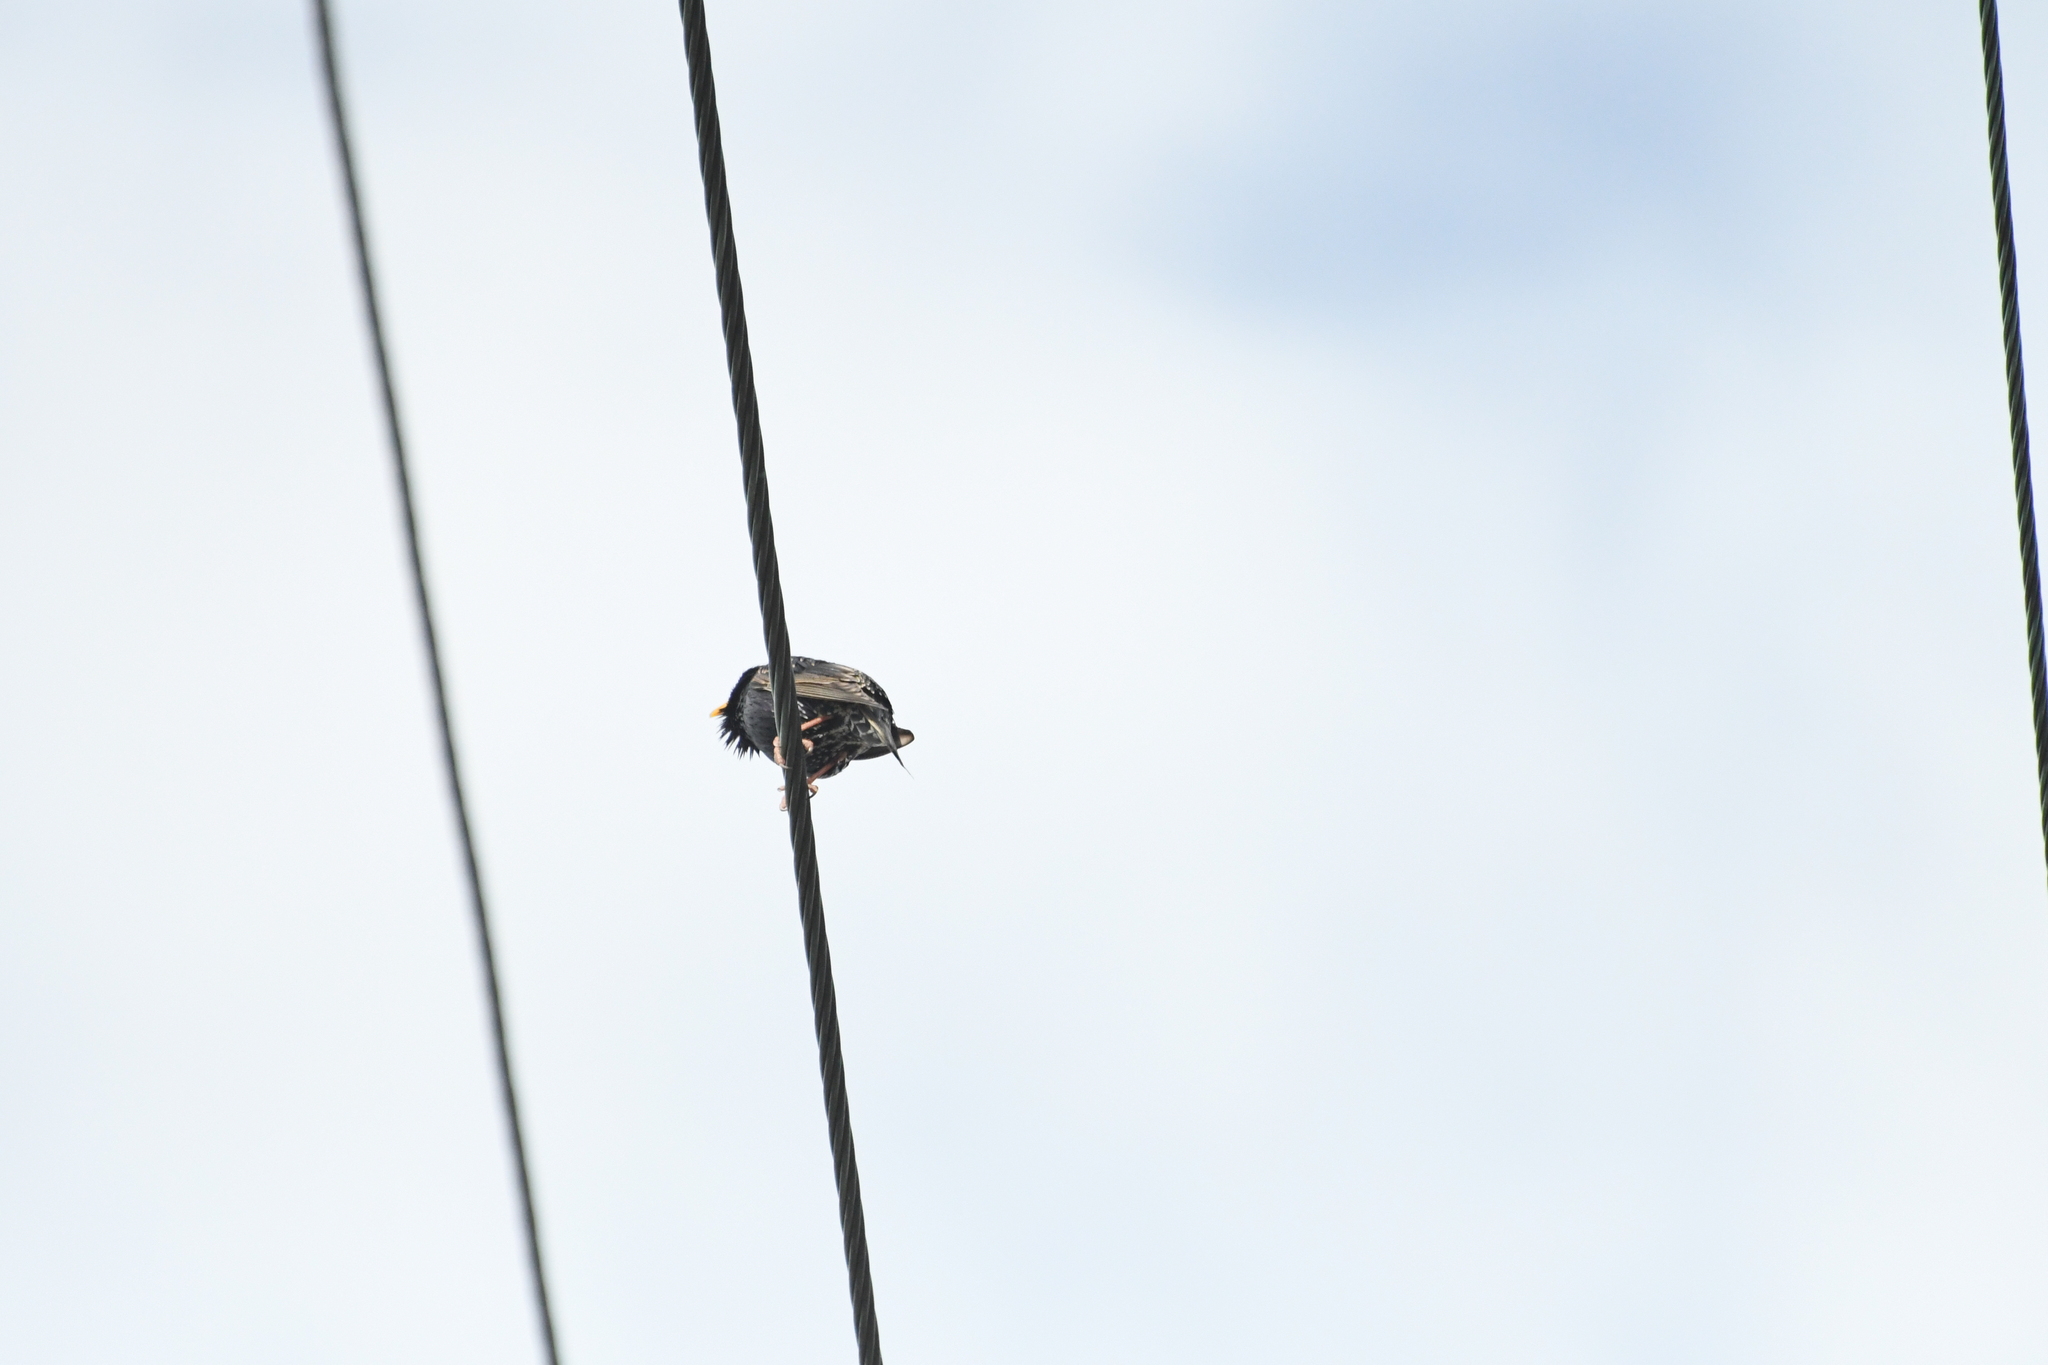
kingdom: Animalia
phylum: Chordata
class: Aves
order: Passeriformes
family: Sturnidae
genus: Sturnus
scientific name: Sturnus vulgaris
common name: Common starling
